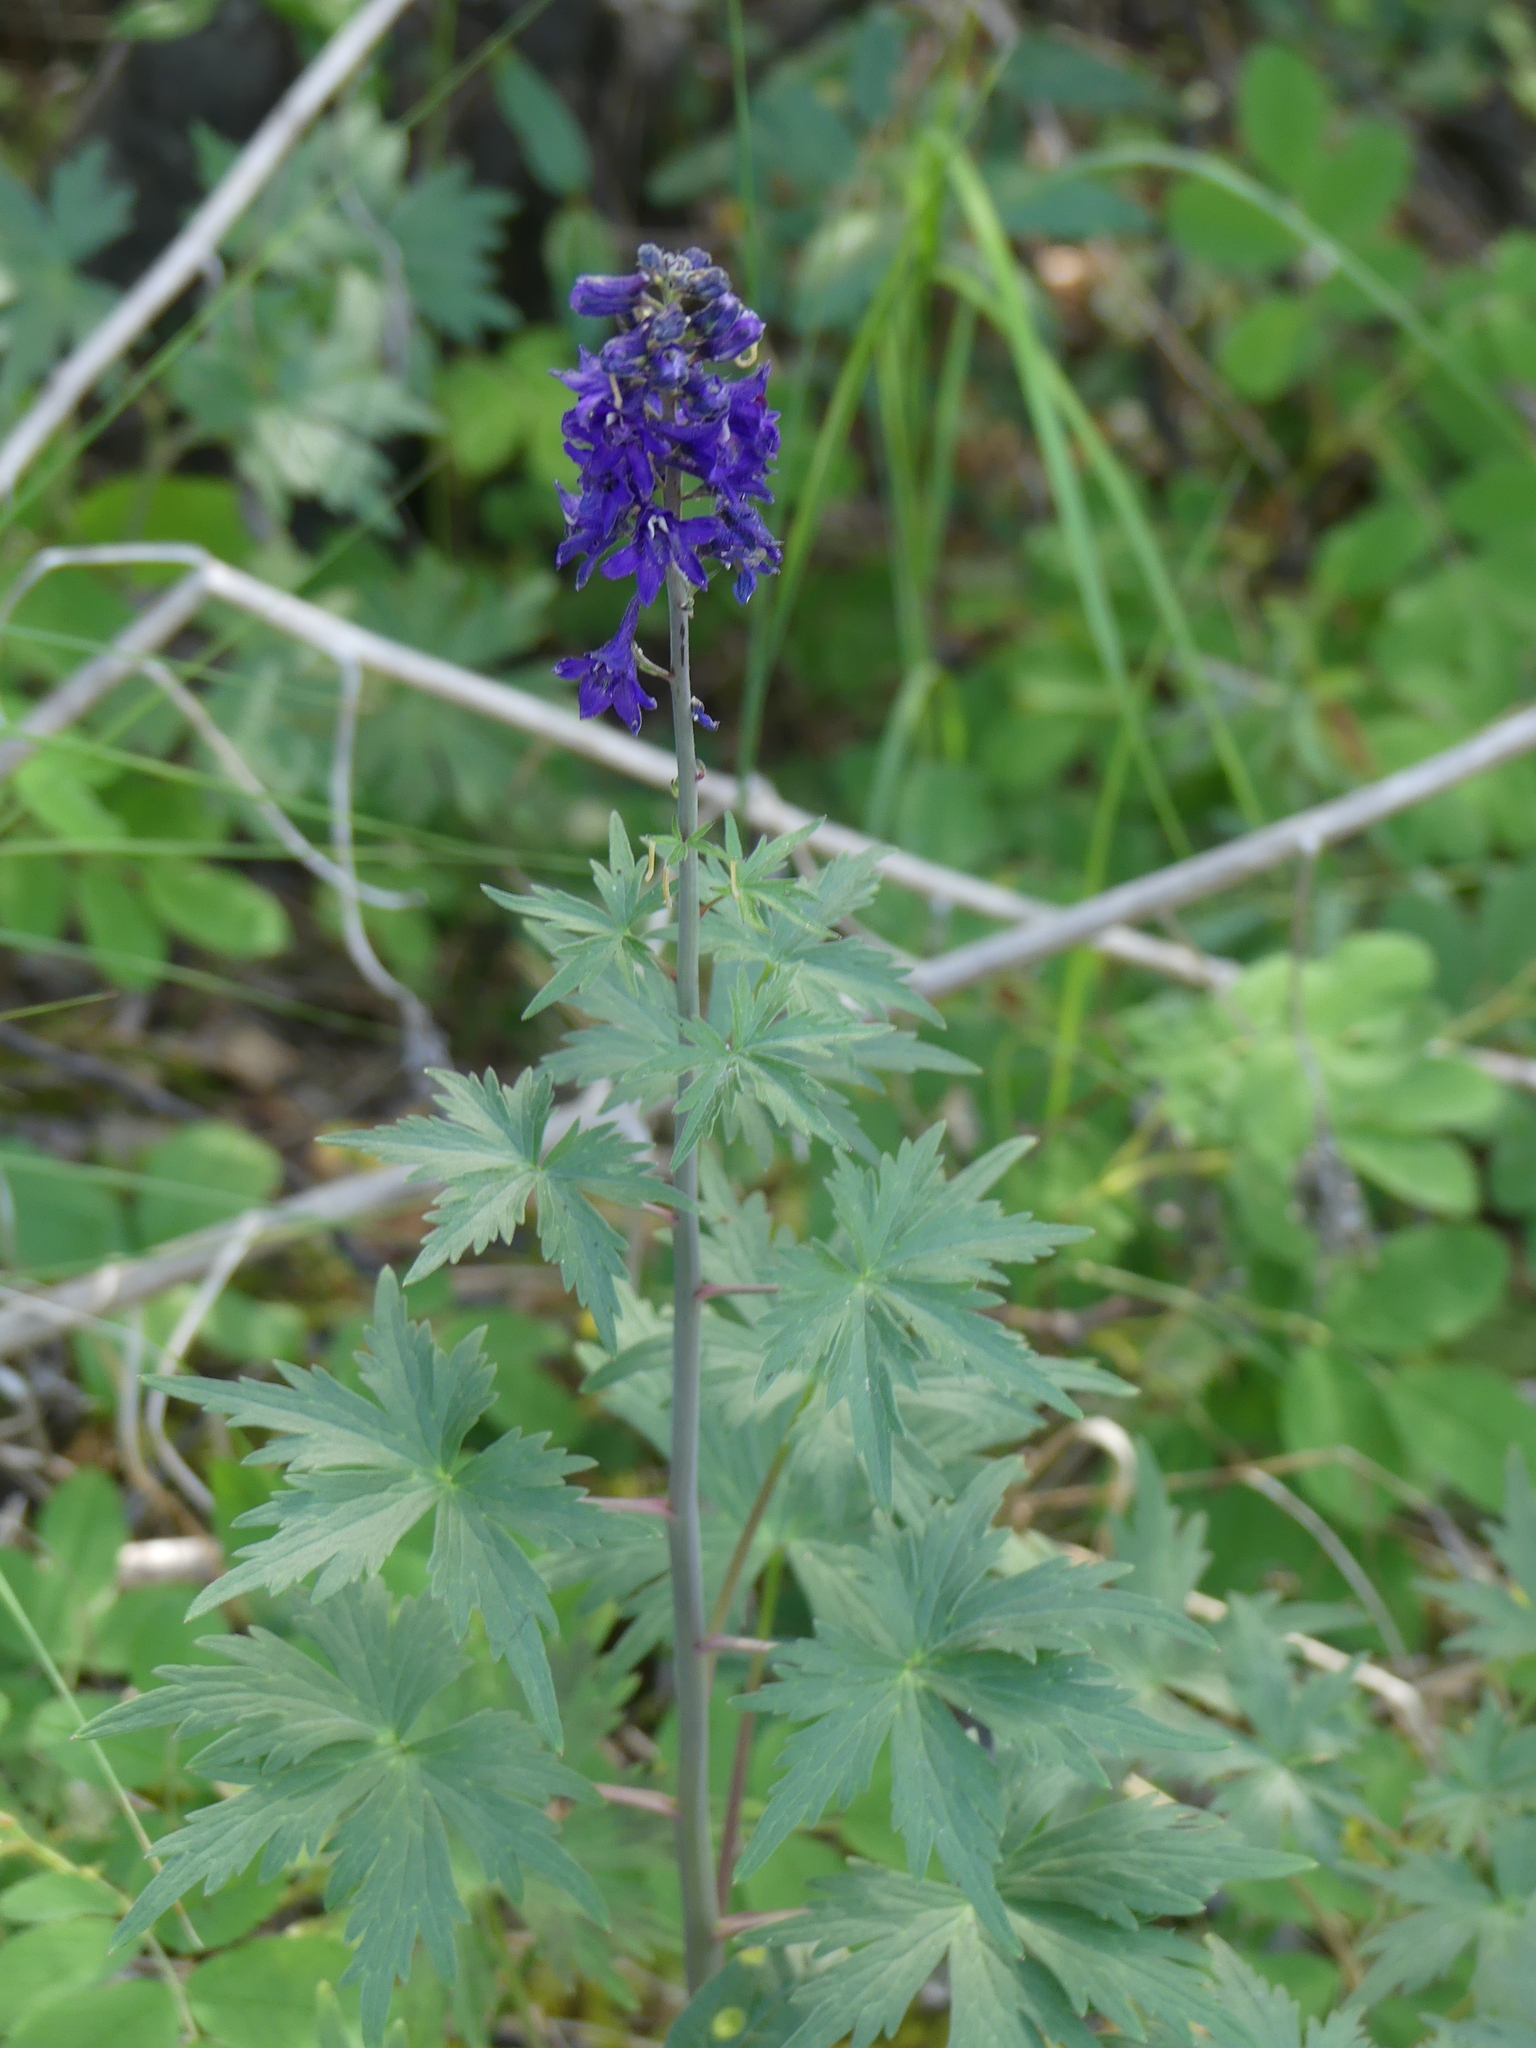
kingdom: Plantae
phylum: Tracheophyta
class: Magnoliopsida
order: Ranunculales
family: Ranunculaceae
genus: Delphinium
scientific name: Delphinium glaucum
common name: Brown's larkspur
